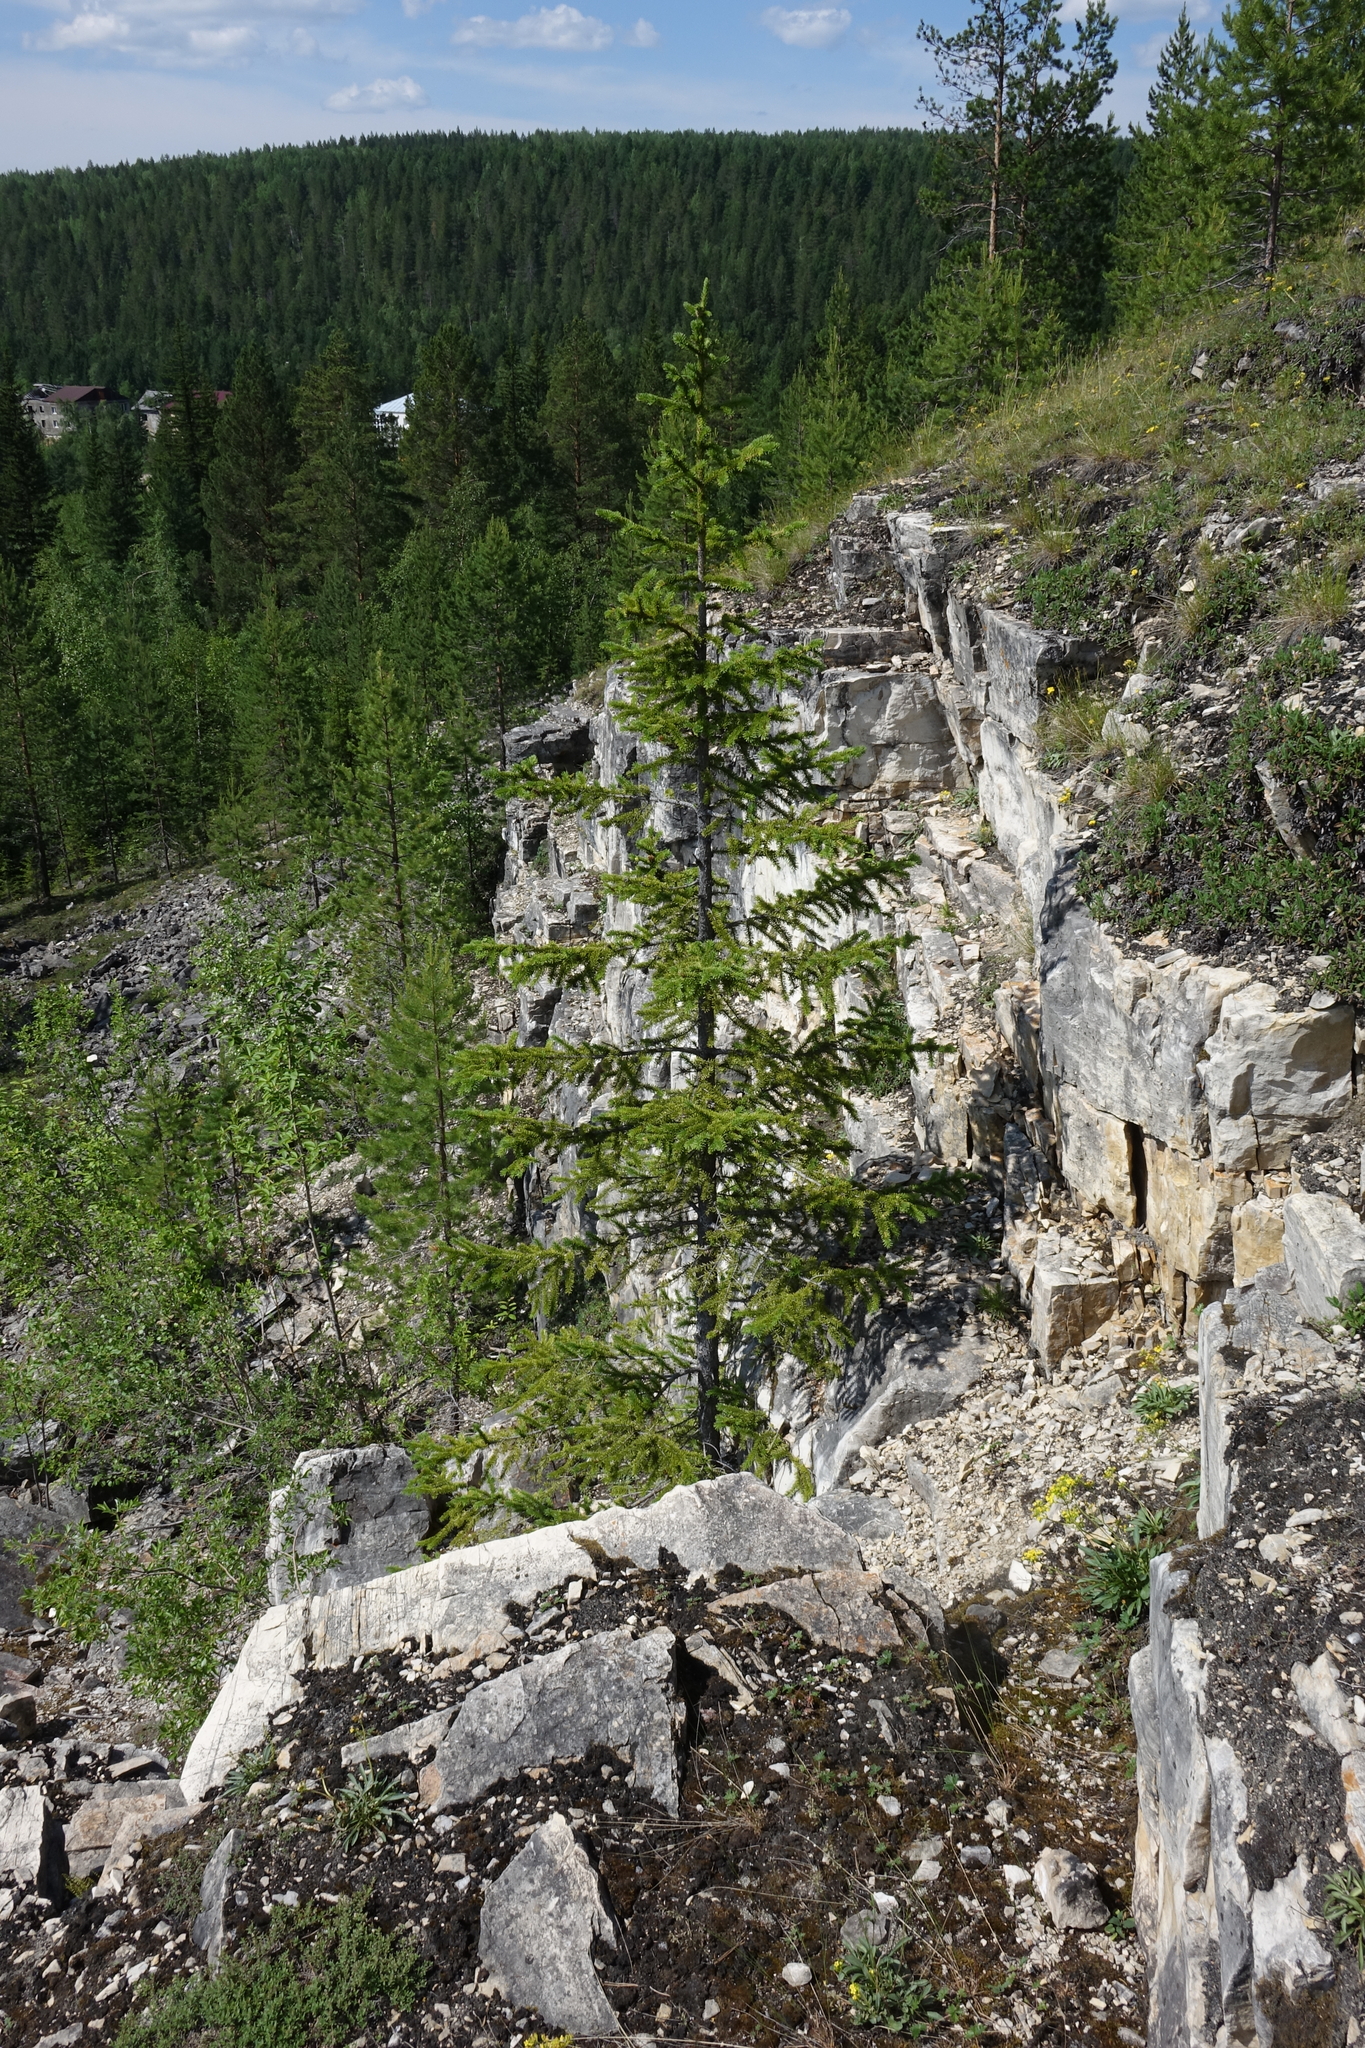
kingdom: Plantae
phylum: Tracheophyta
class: Pinopsida
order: Pinales
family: Pinaceae
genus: Picea
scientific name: Picea obovata
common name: Siberian spruce
